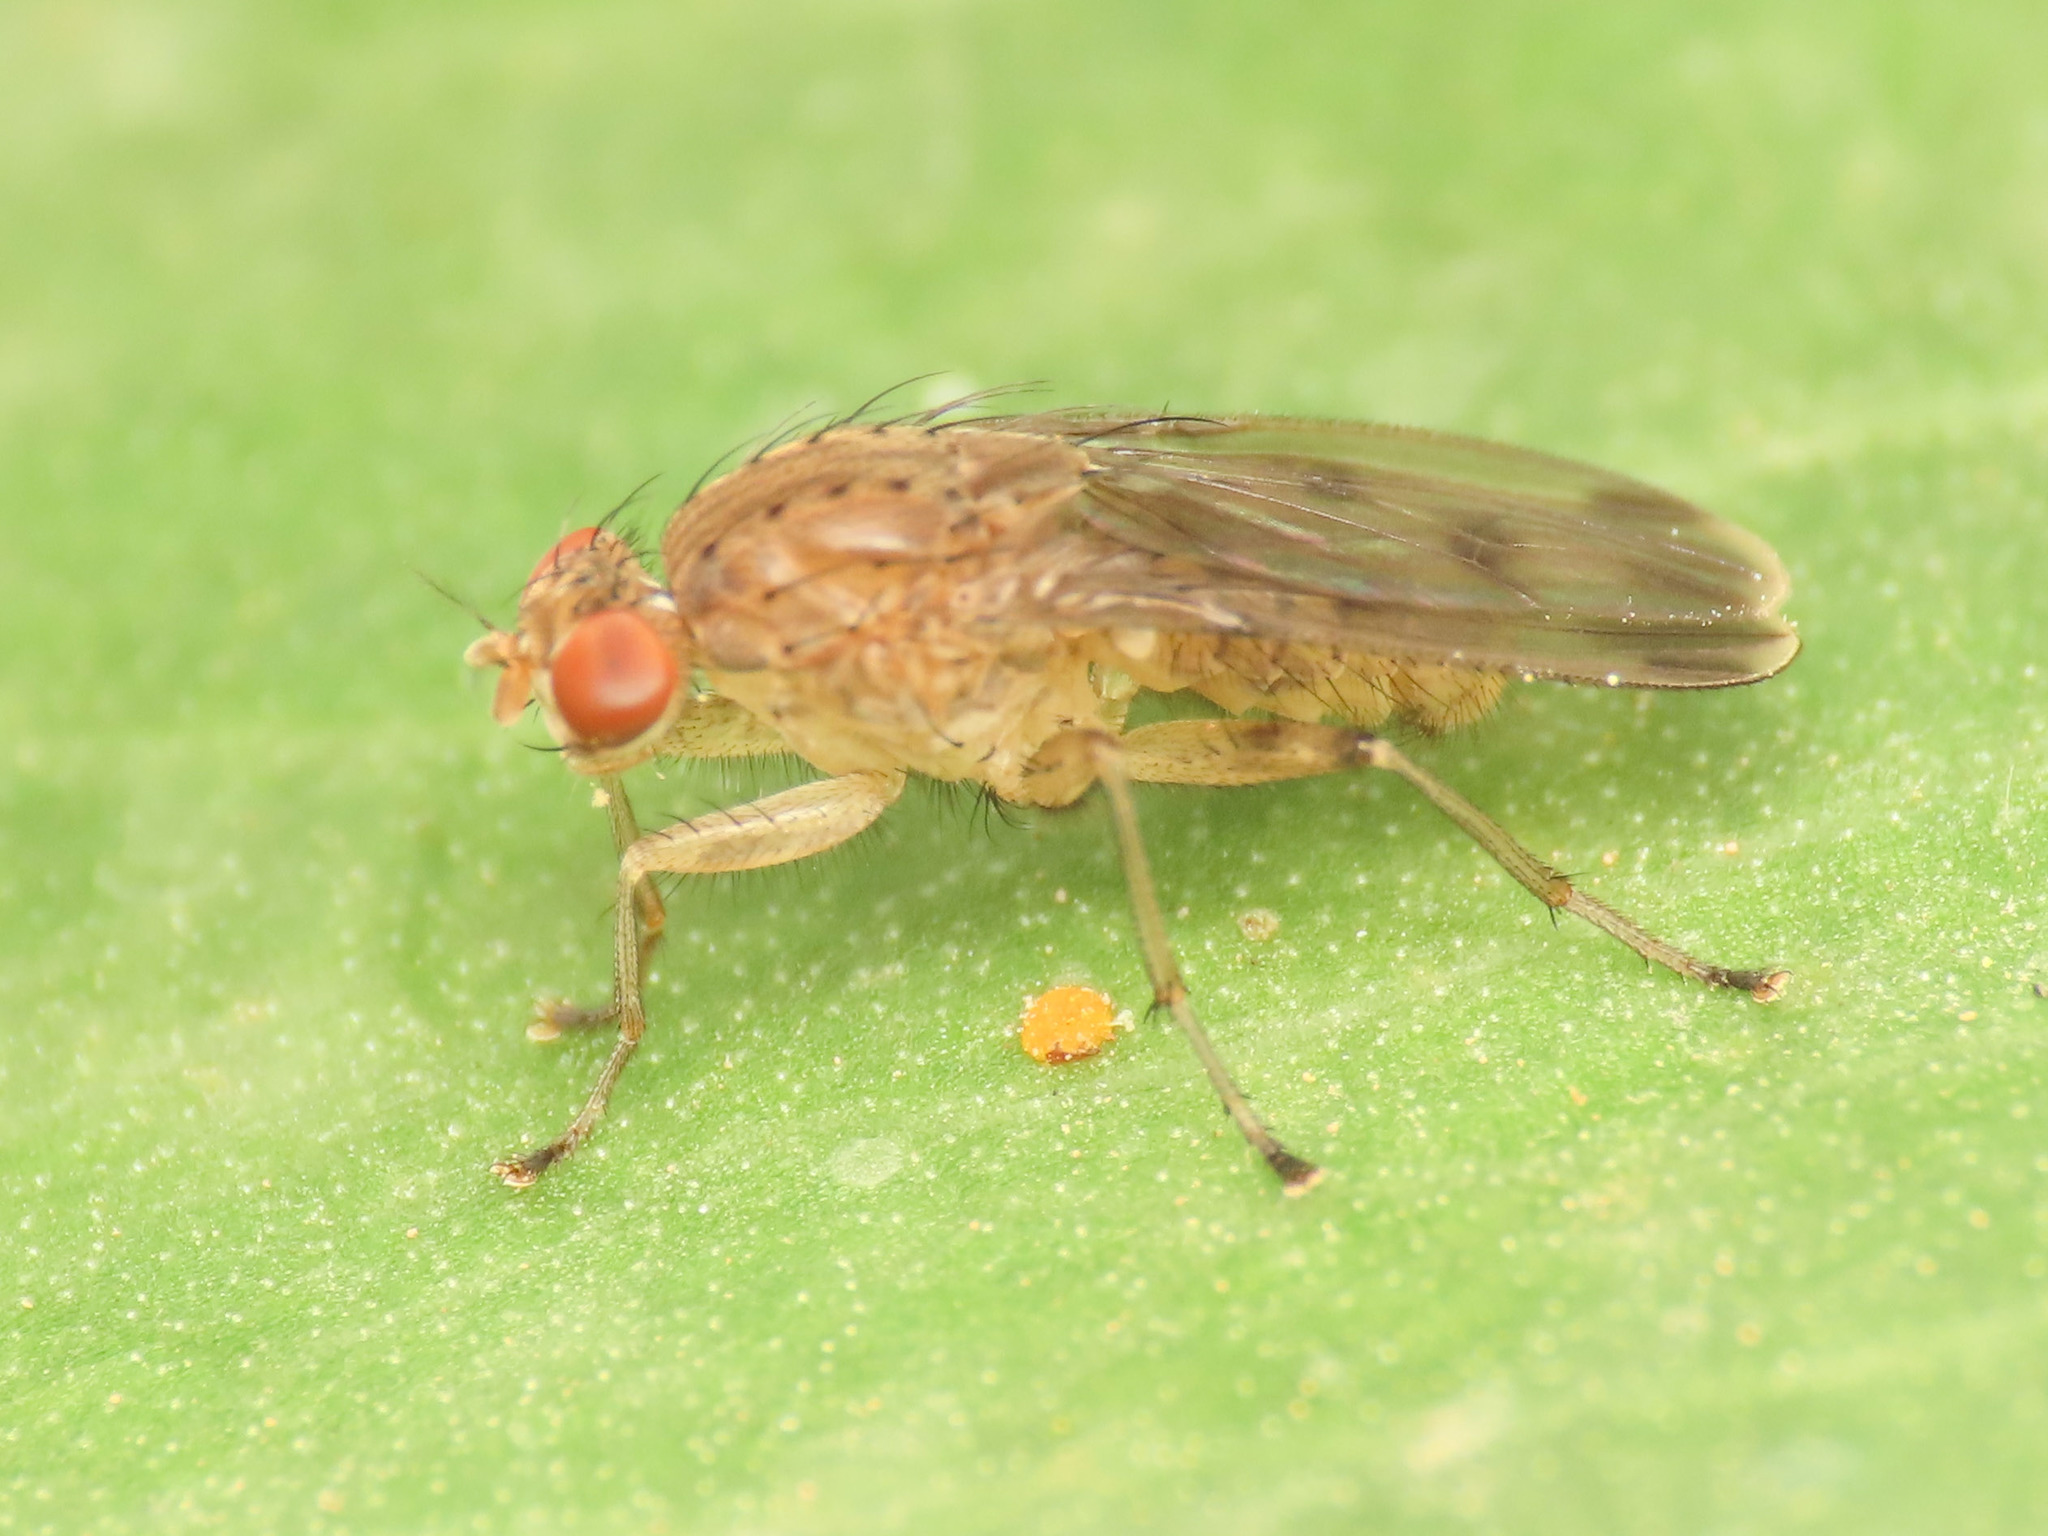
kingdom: Animalia
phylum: Arthropoda
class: Insecta
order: Diptera
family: Heleomyzidae
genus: Suillia
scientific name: Suillia variegata
